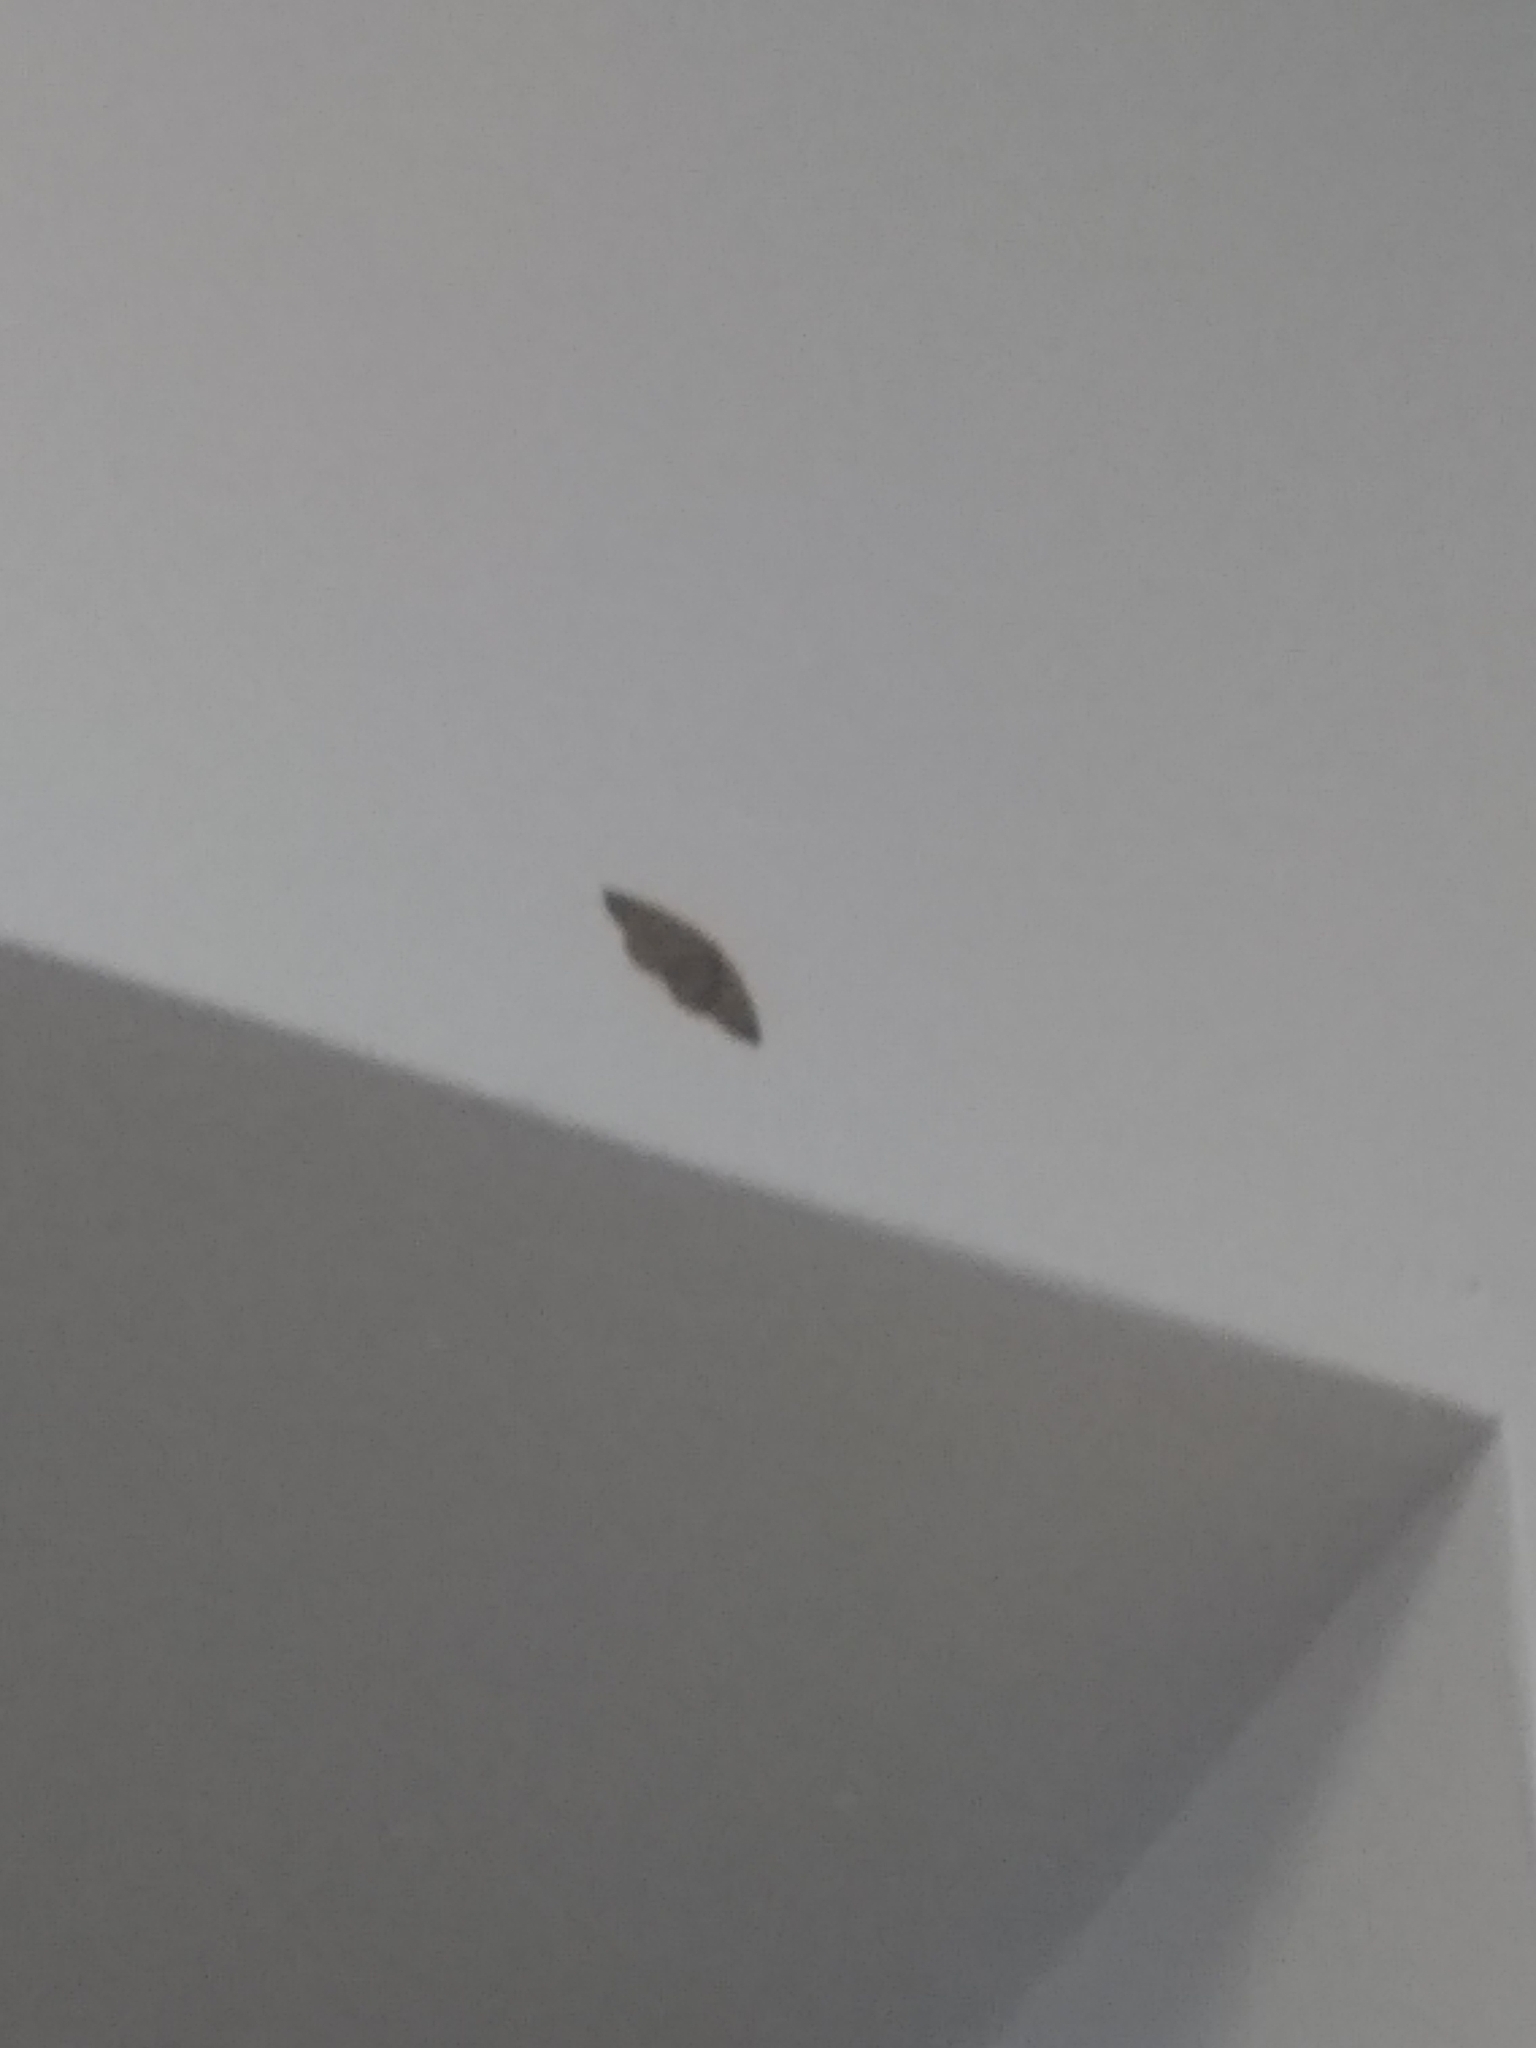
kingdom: Animalia
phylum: Arthropoda
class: Insecta
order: Lepidoptera
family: Geometridae
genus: Lambdina
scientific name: Lambdina fiscellaria
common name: Hemlock looper
